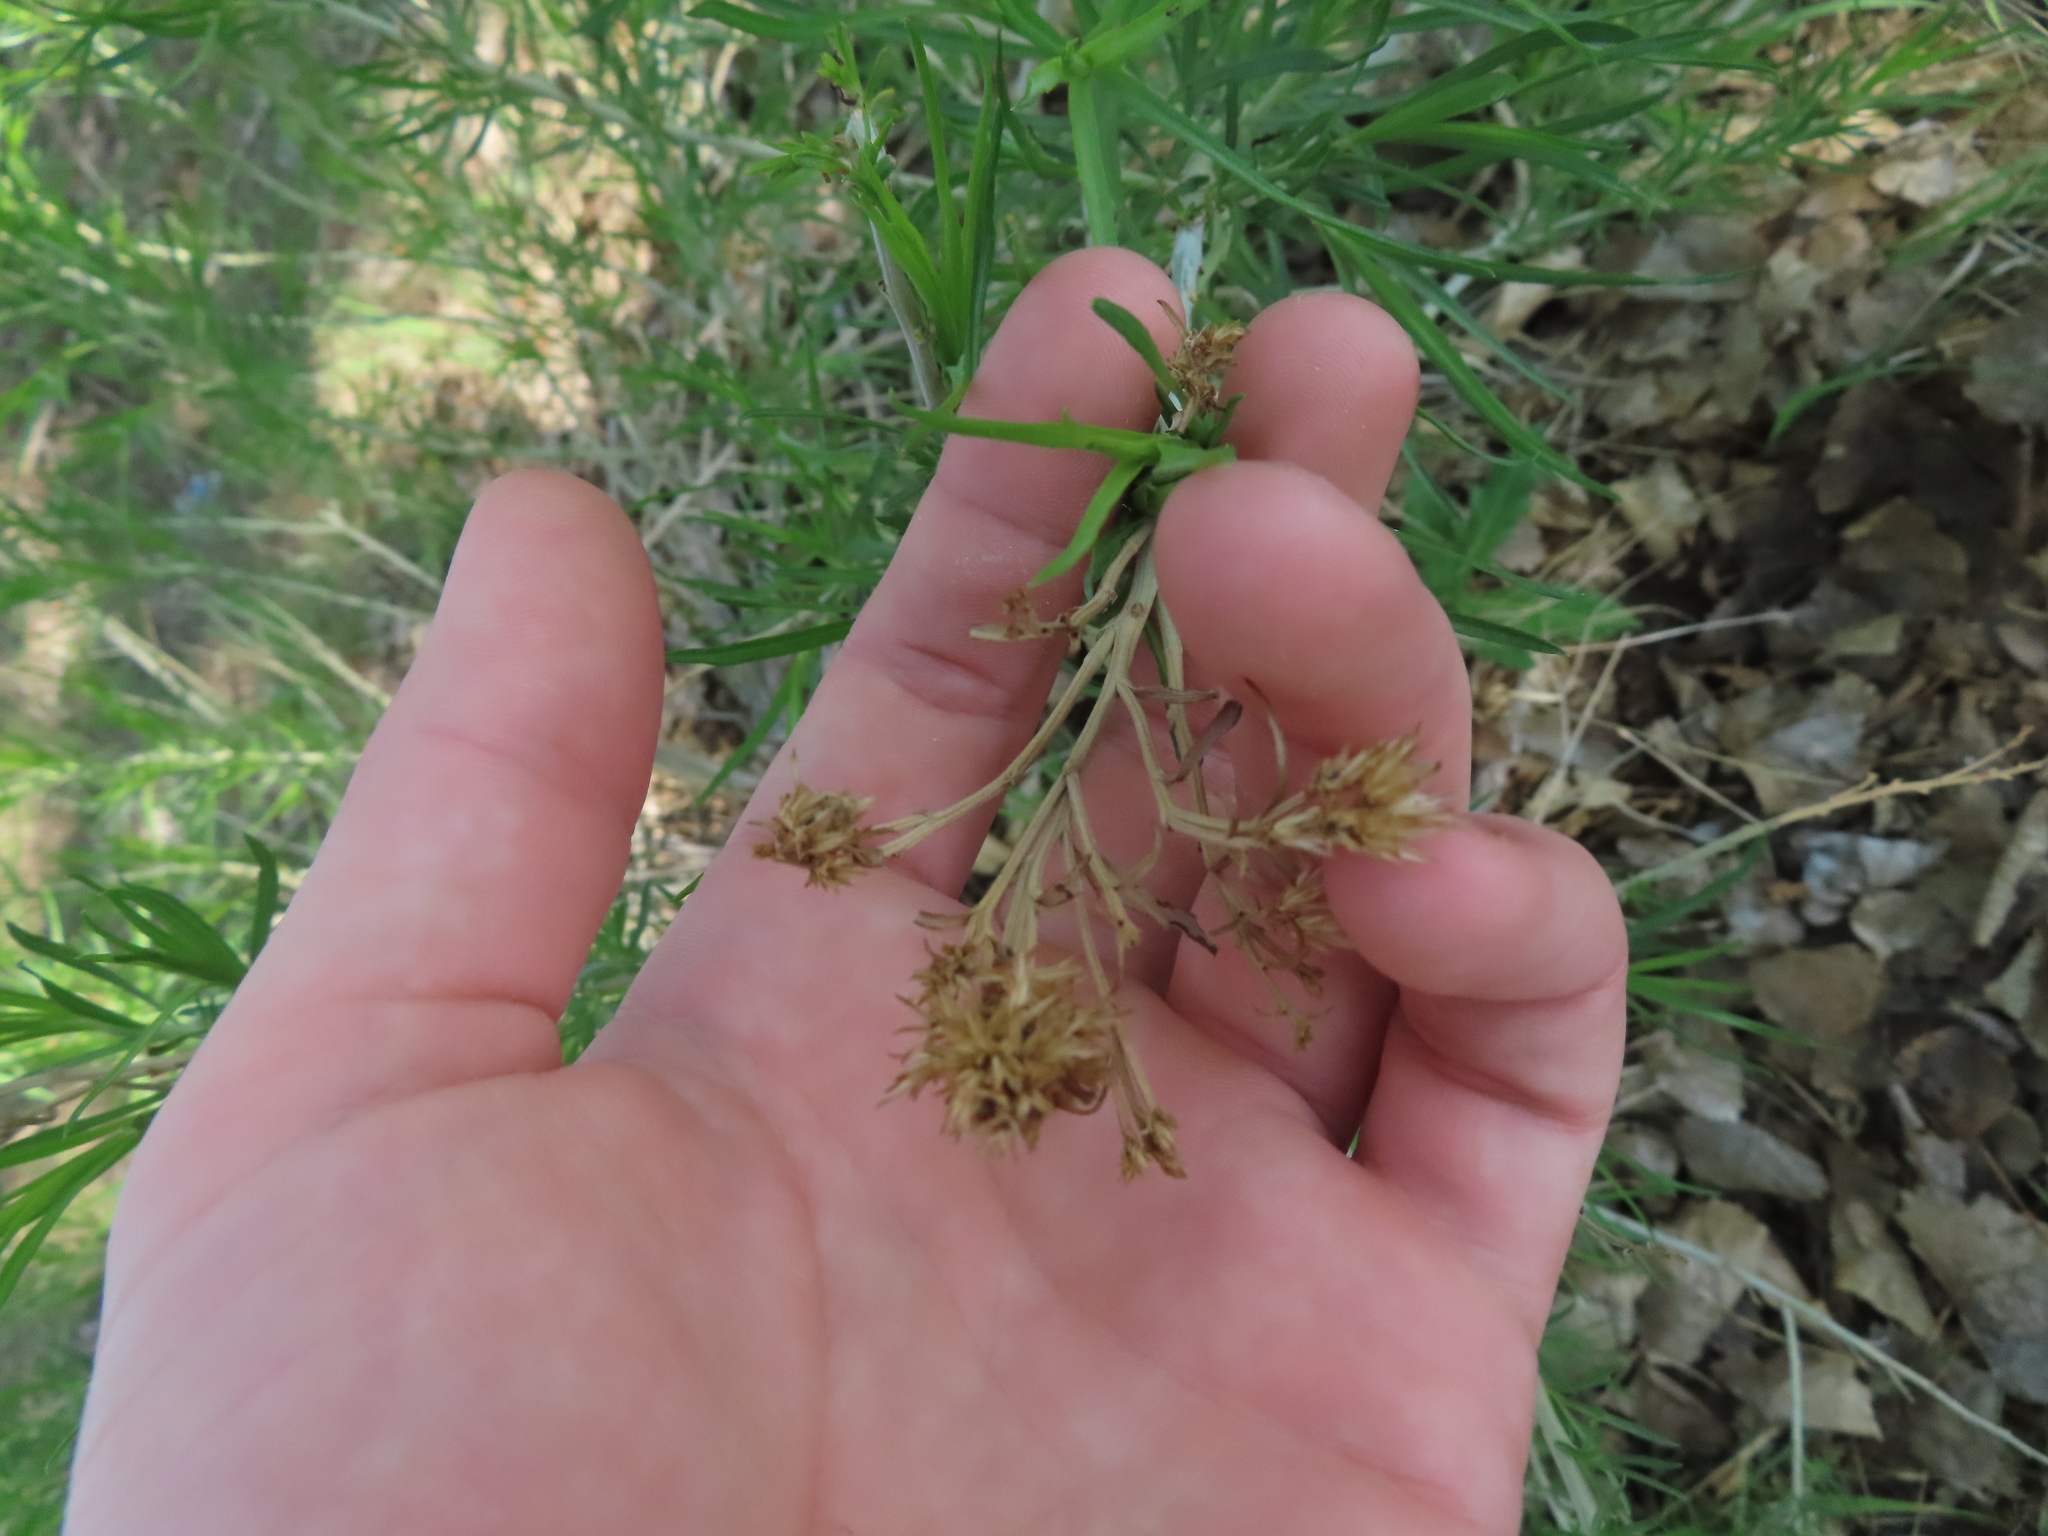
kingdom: Animalia
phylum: Arthropoda
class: Insecta
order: Diptera
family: Tephritidae
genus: Aciurina
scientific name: Aciurina bigeloviae
